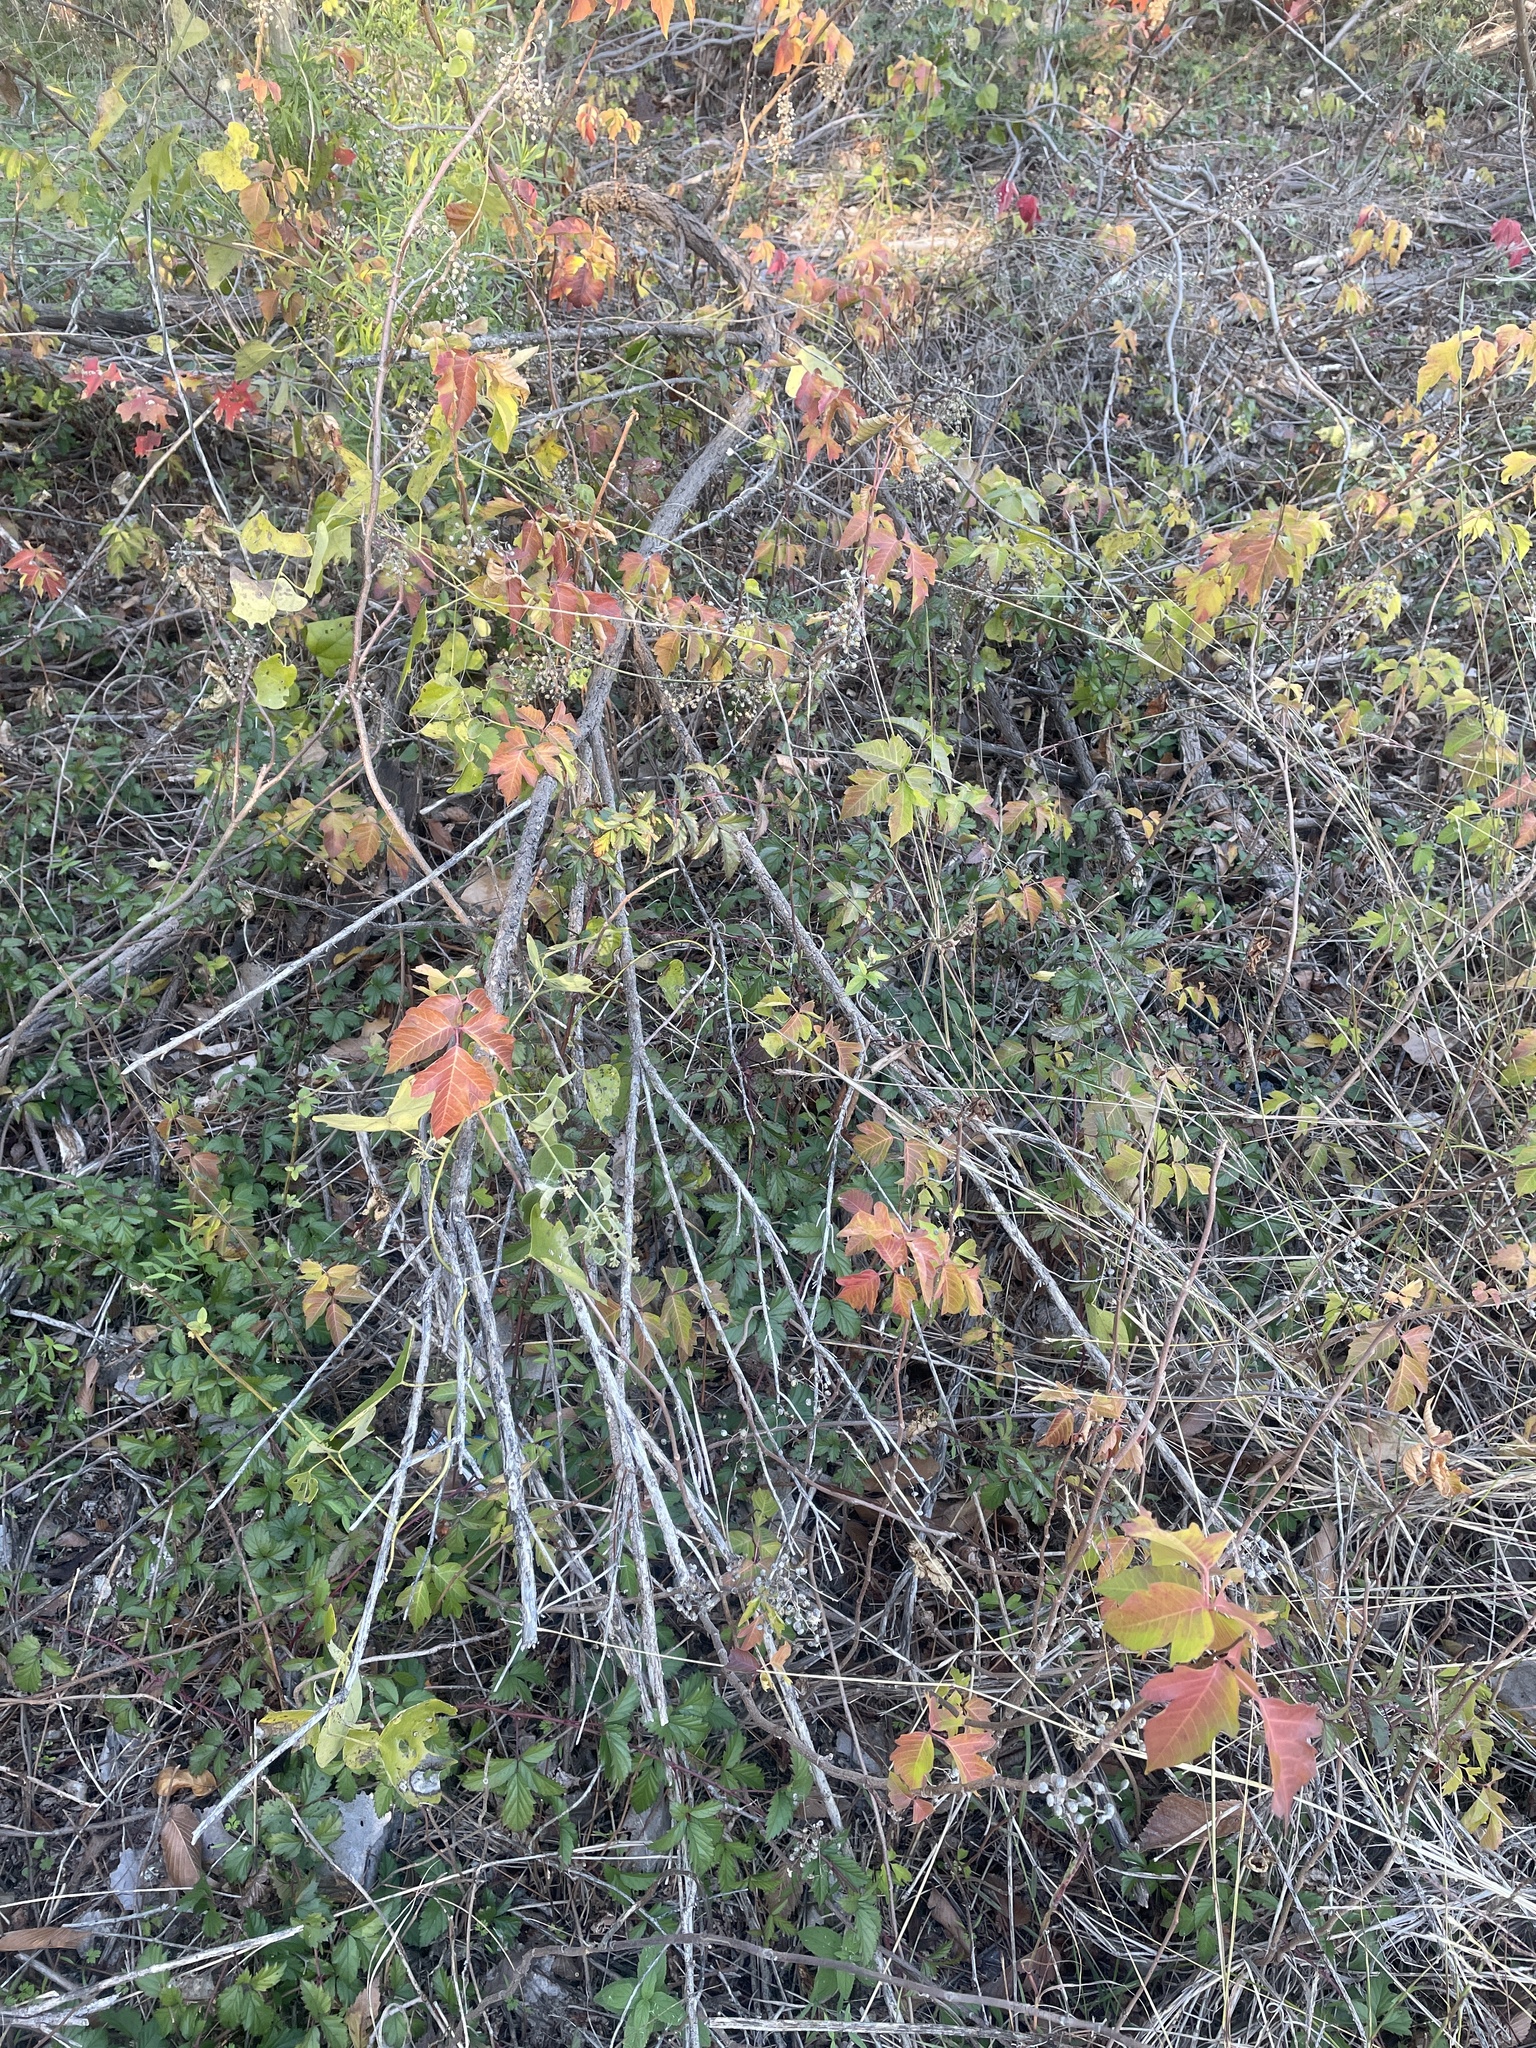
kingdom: Plantae
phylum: Tracheophyta
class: Magnoliopsida
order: Sapindales
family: Anacardiaceae
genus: Toxicodendron
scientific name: Toxicodendron radicans
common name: Poison ivy
